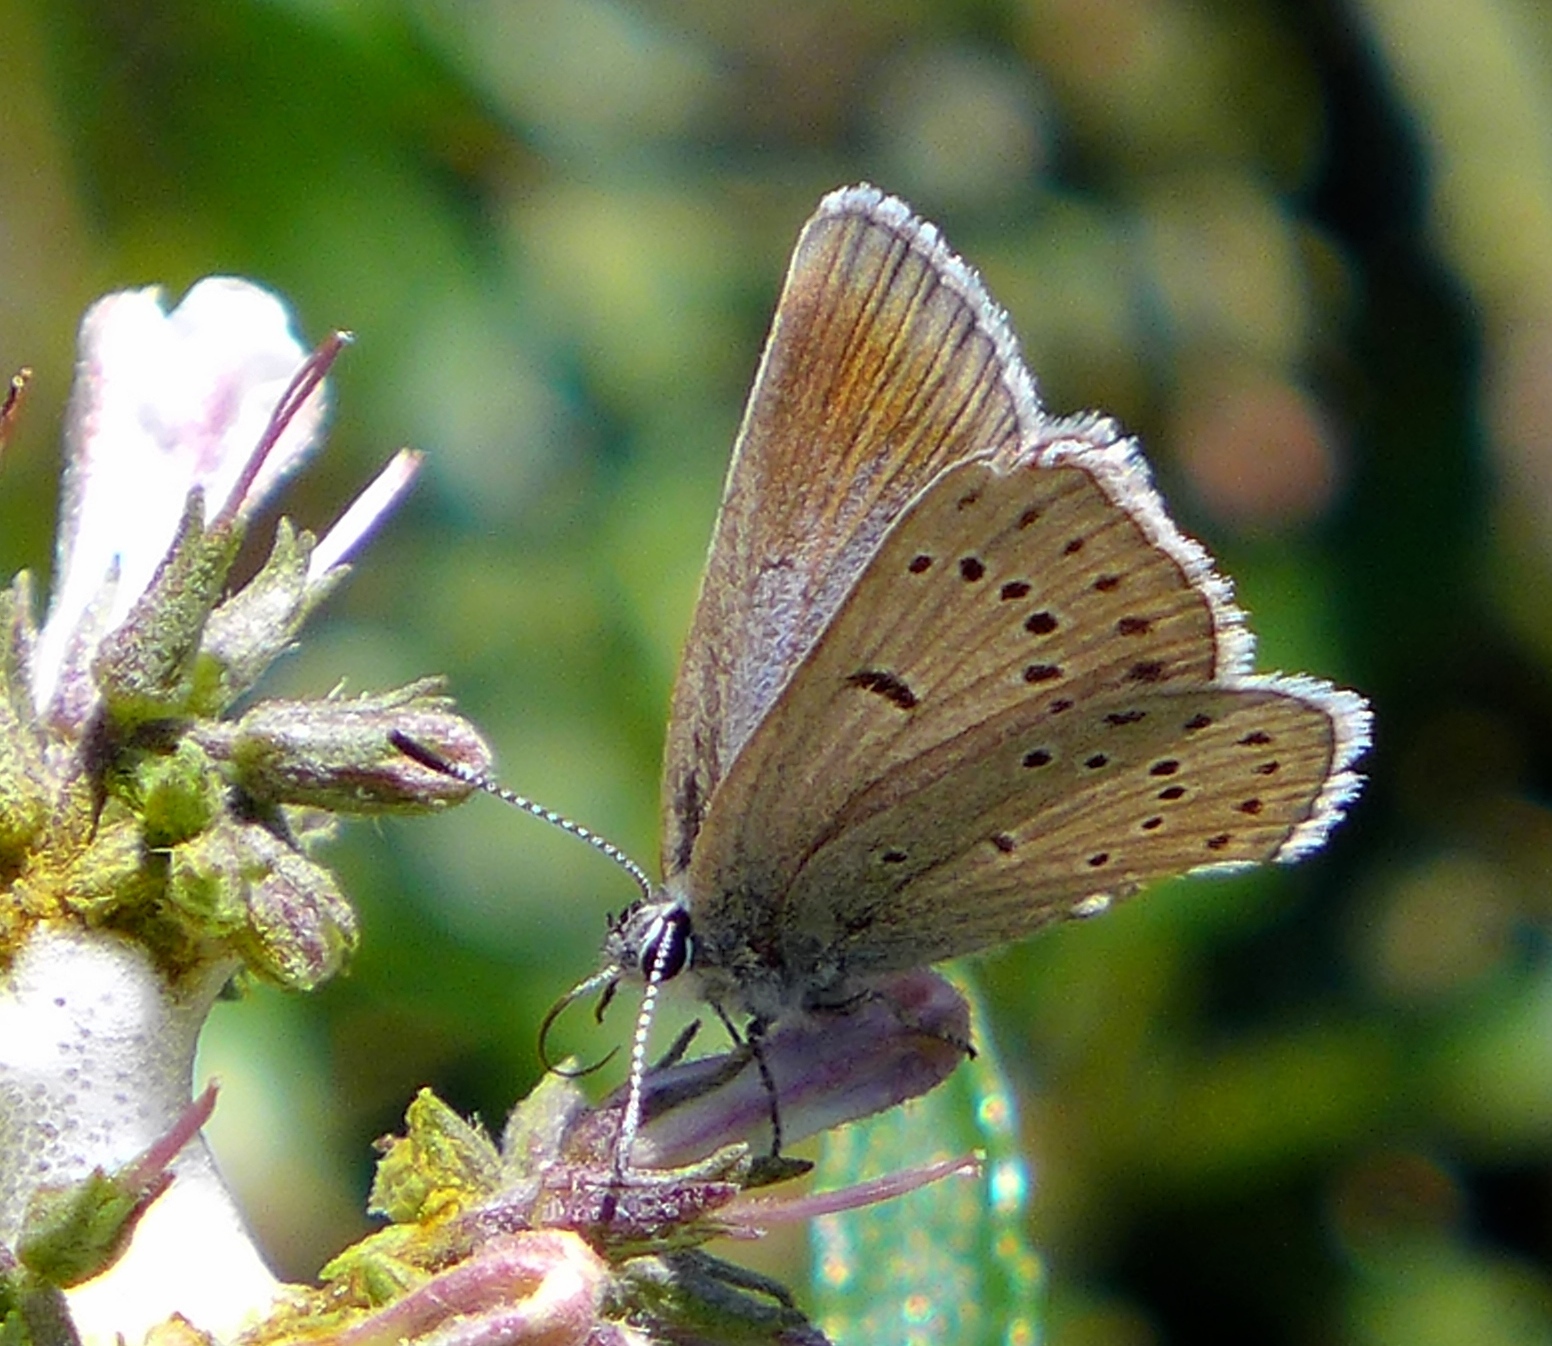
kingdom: Animalia
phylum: Arthropoda
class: Insecta
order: Lepidoptera
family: Lycaenidae
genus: Icaricia
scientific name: Icaricia icarioides
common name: Boisduval's blue
